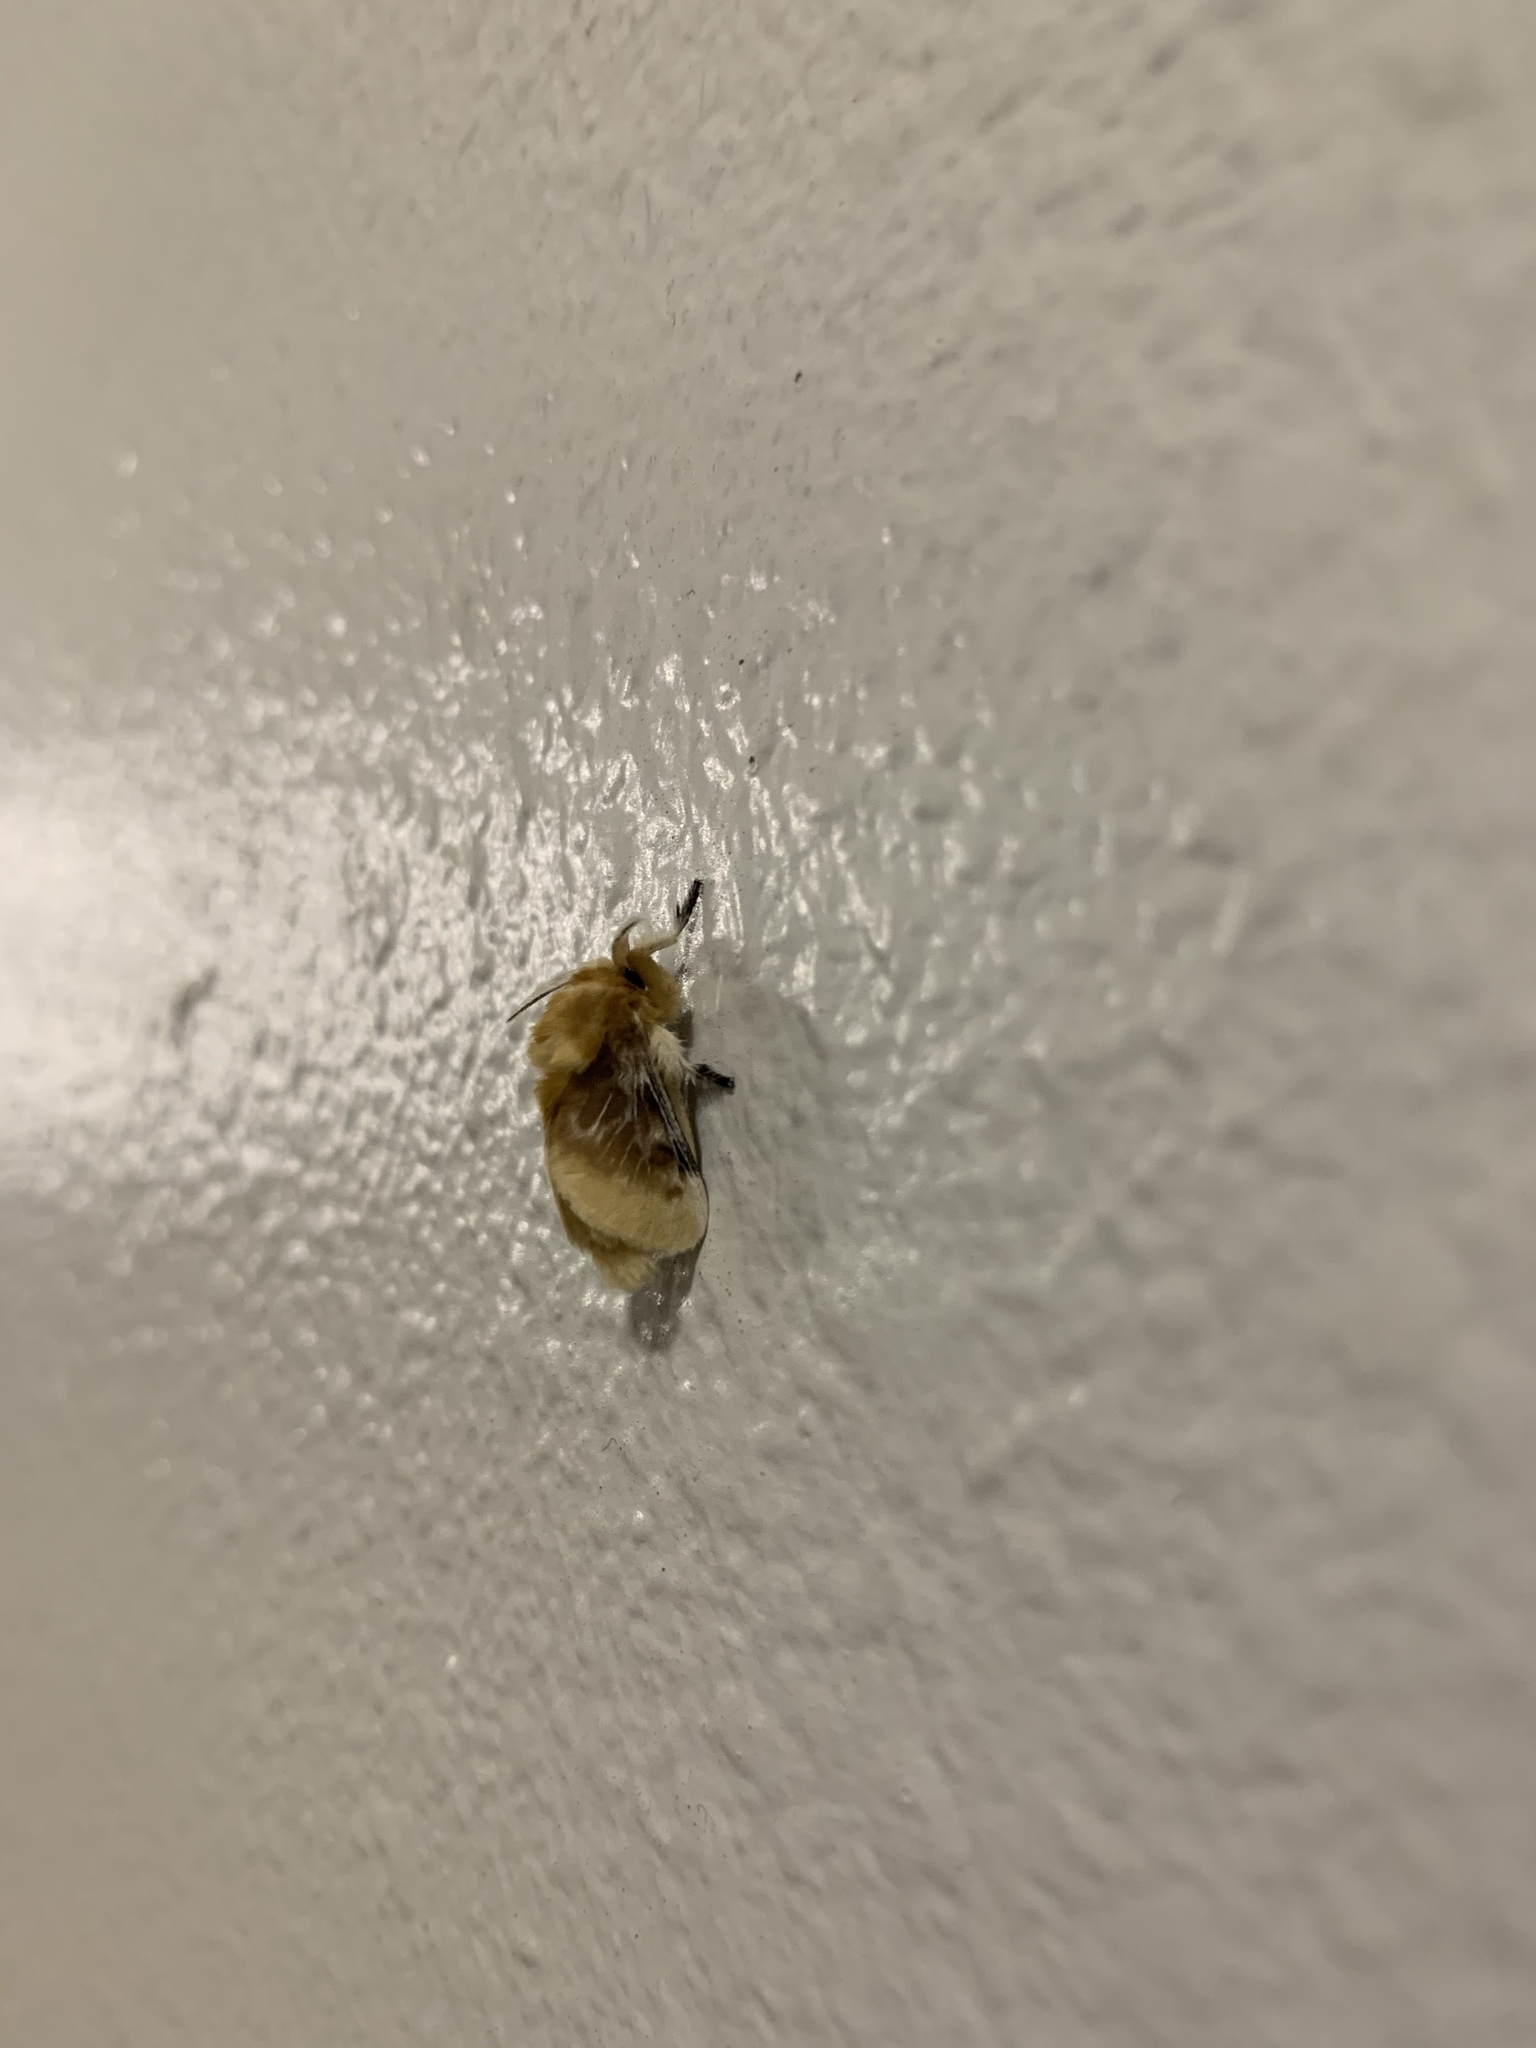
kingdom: Animalia
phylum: Arthropoda
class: Insecta
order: Lepidoptera
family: Megalopygidae
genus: Megalopyge
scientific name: Megalopyge opercularis
